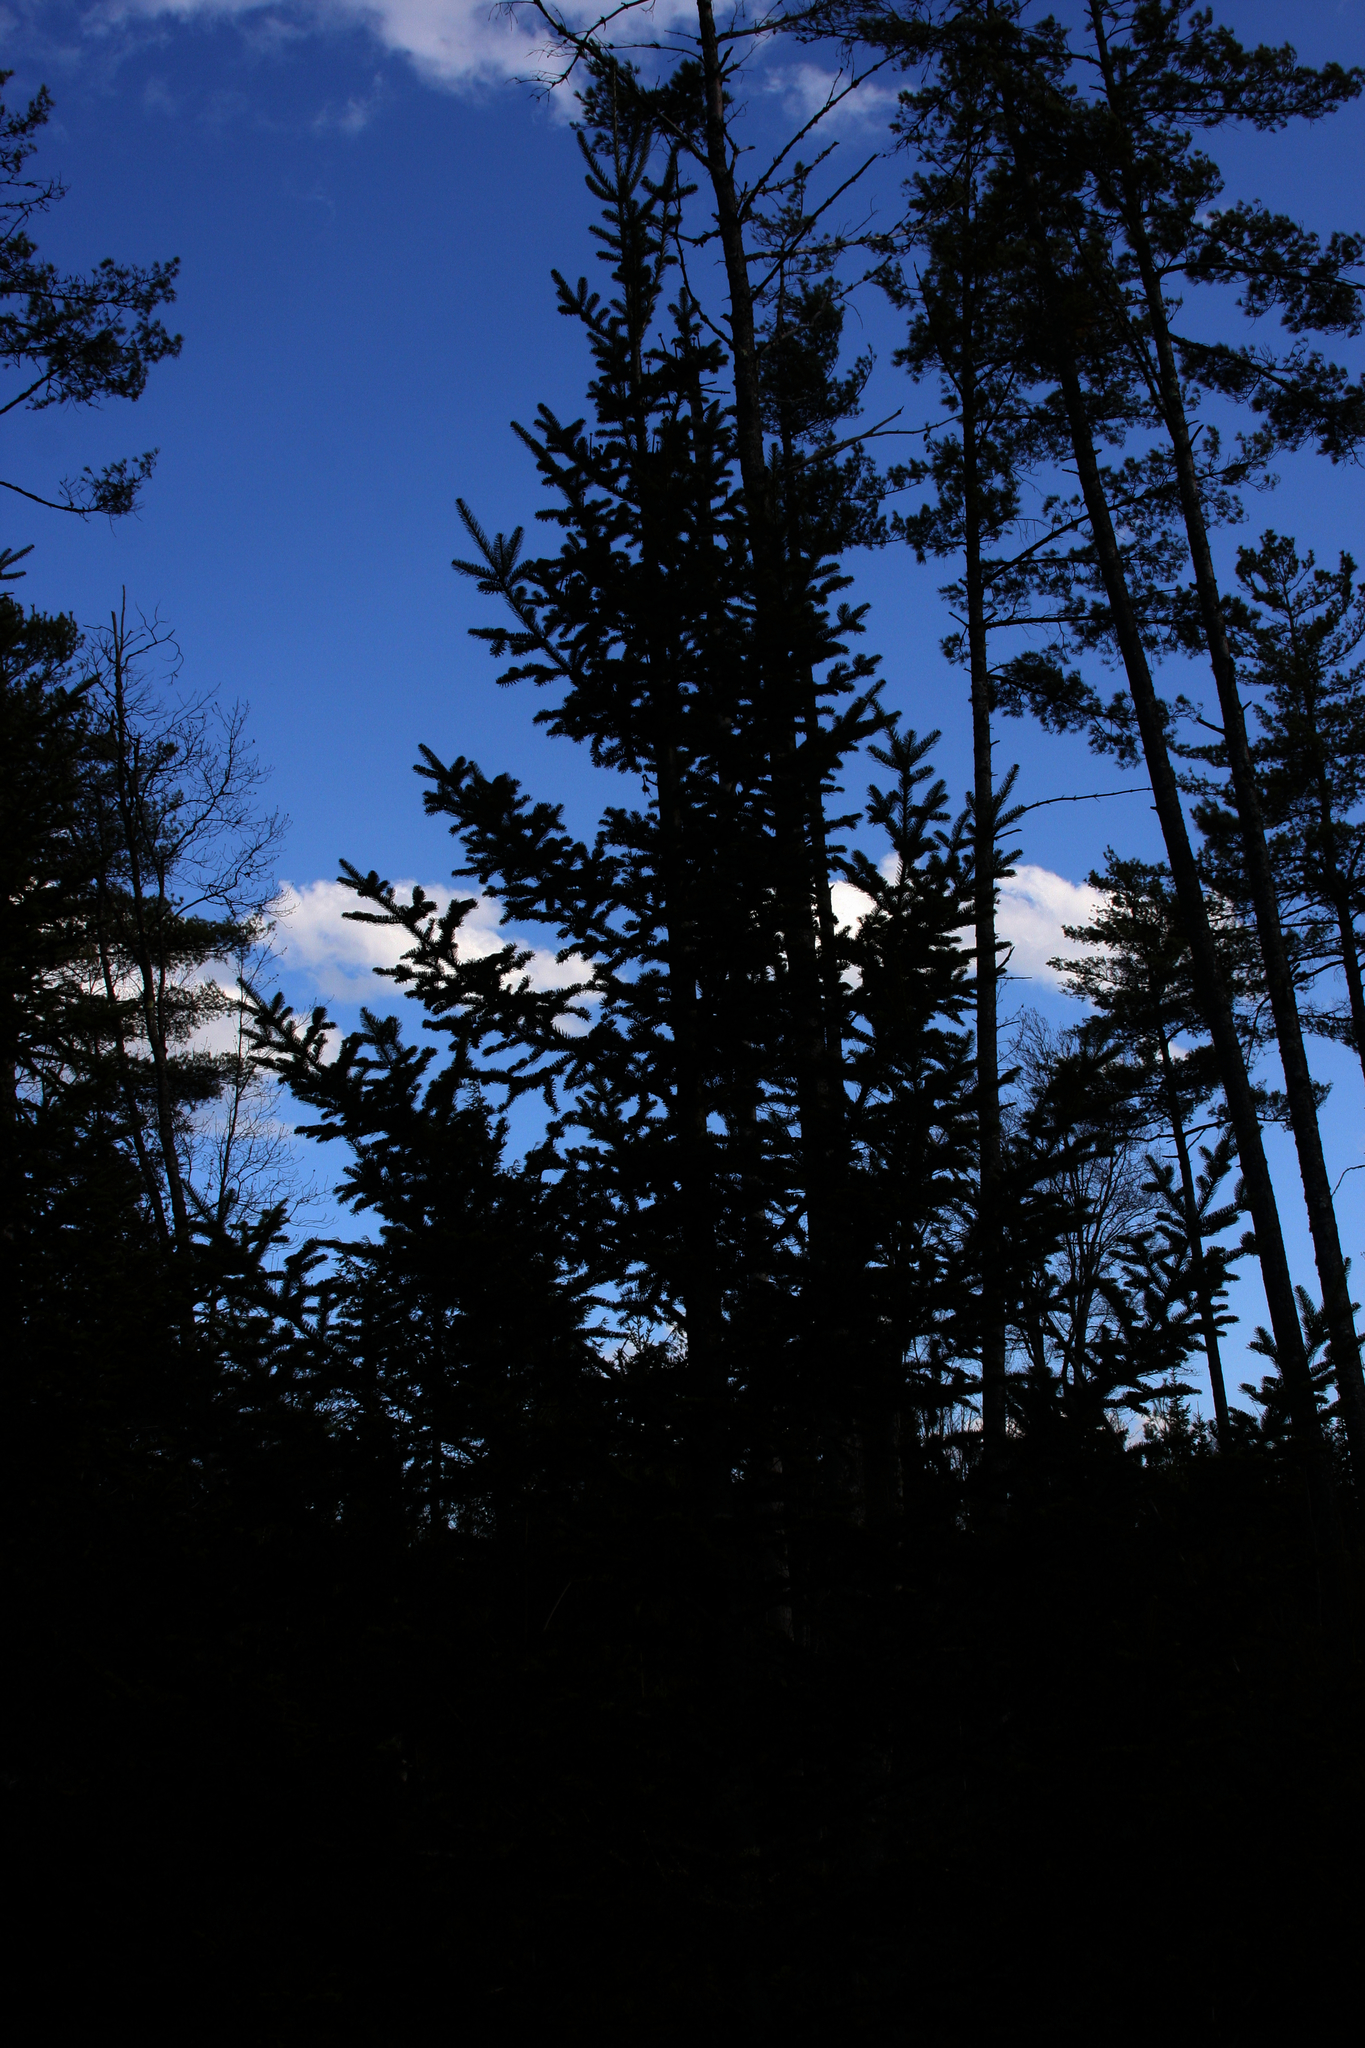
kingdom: Plantae
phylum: Tracheophyta
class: Pinopsida
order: Pinales
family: Pinaceae
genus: Abies
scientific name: Abies balsamea
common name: Balsam fir
